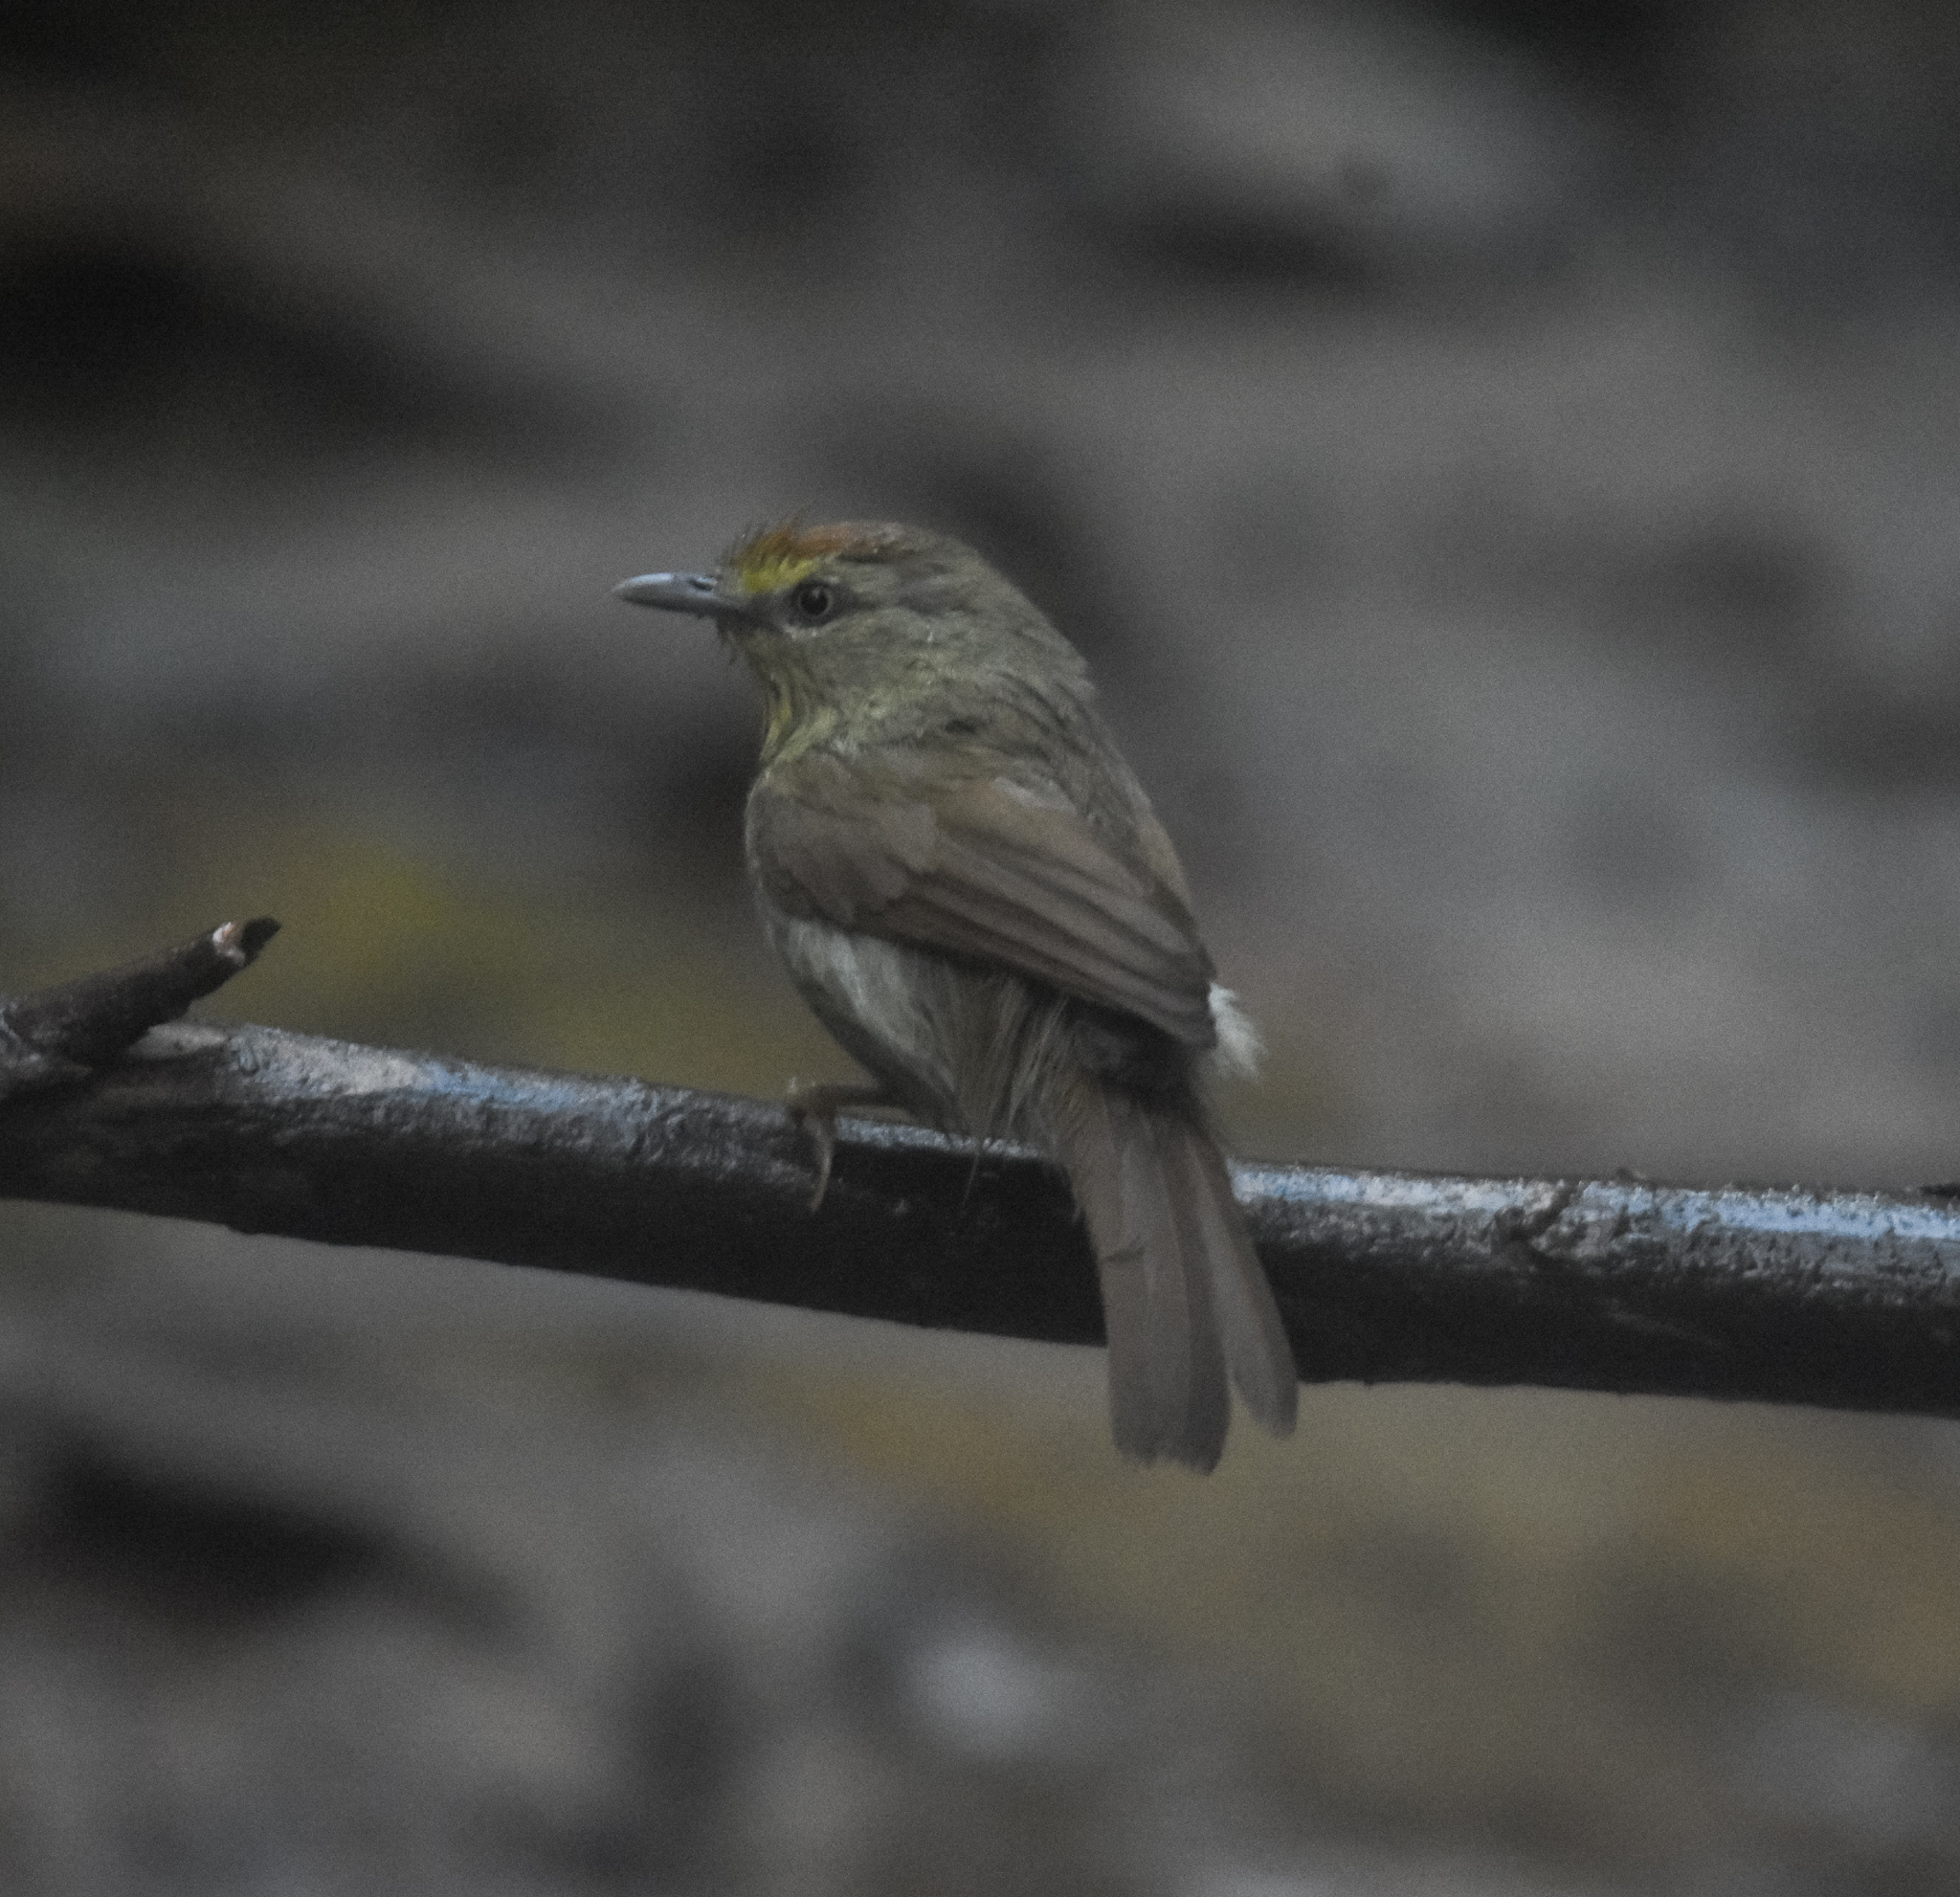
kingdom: Animalia
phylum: Chordata
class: Aves
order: Passeriformes
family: Timaliidae
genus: Macronus
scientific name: Macronus gularis
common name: Striped tit-babbler
